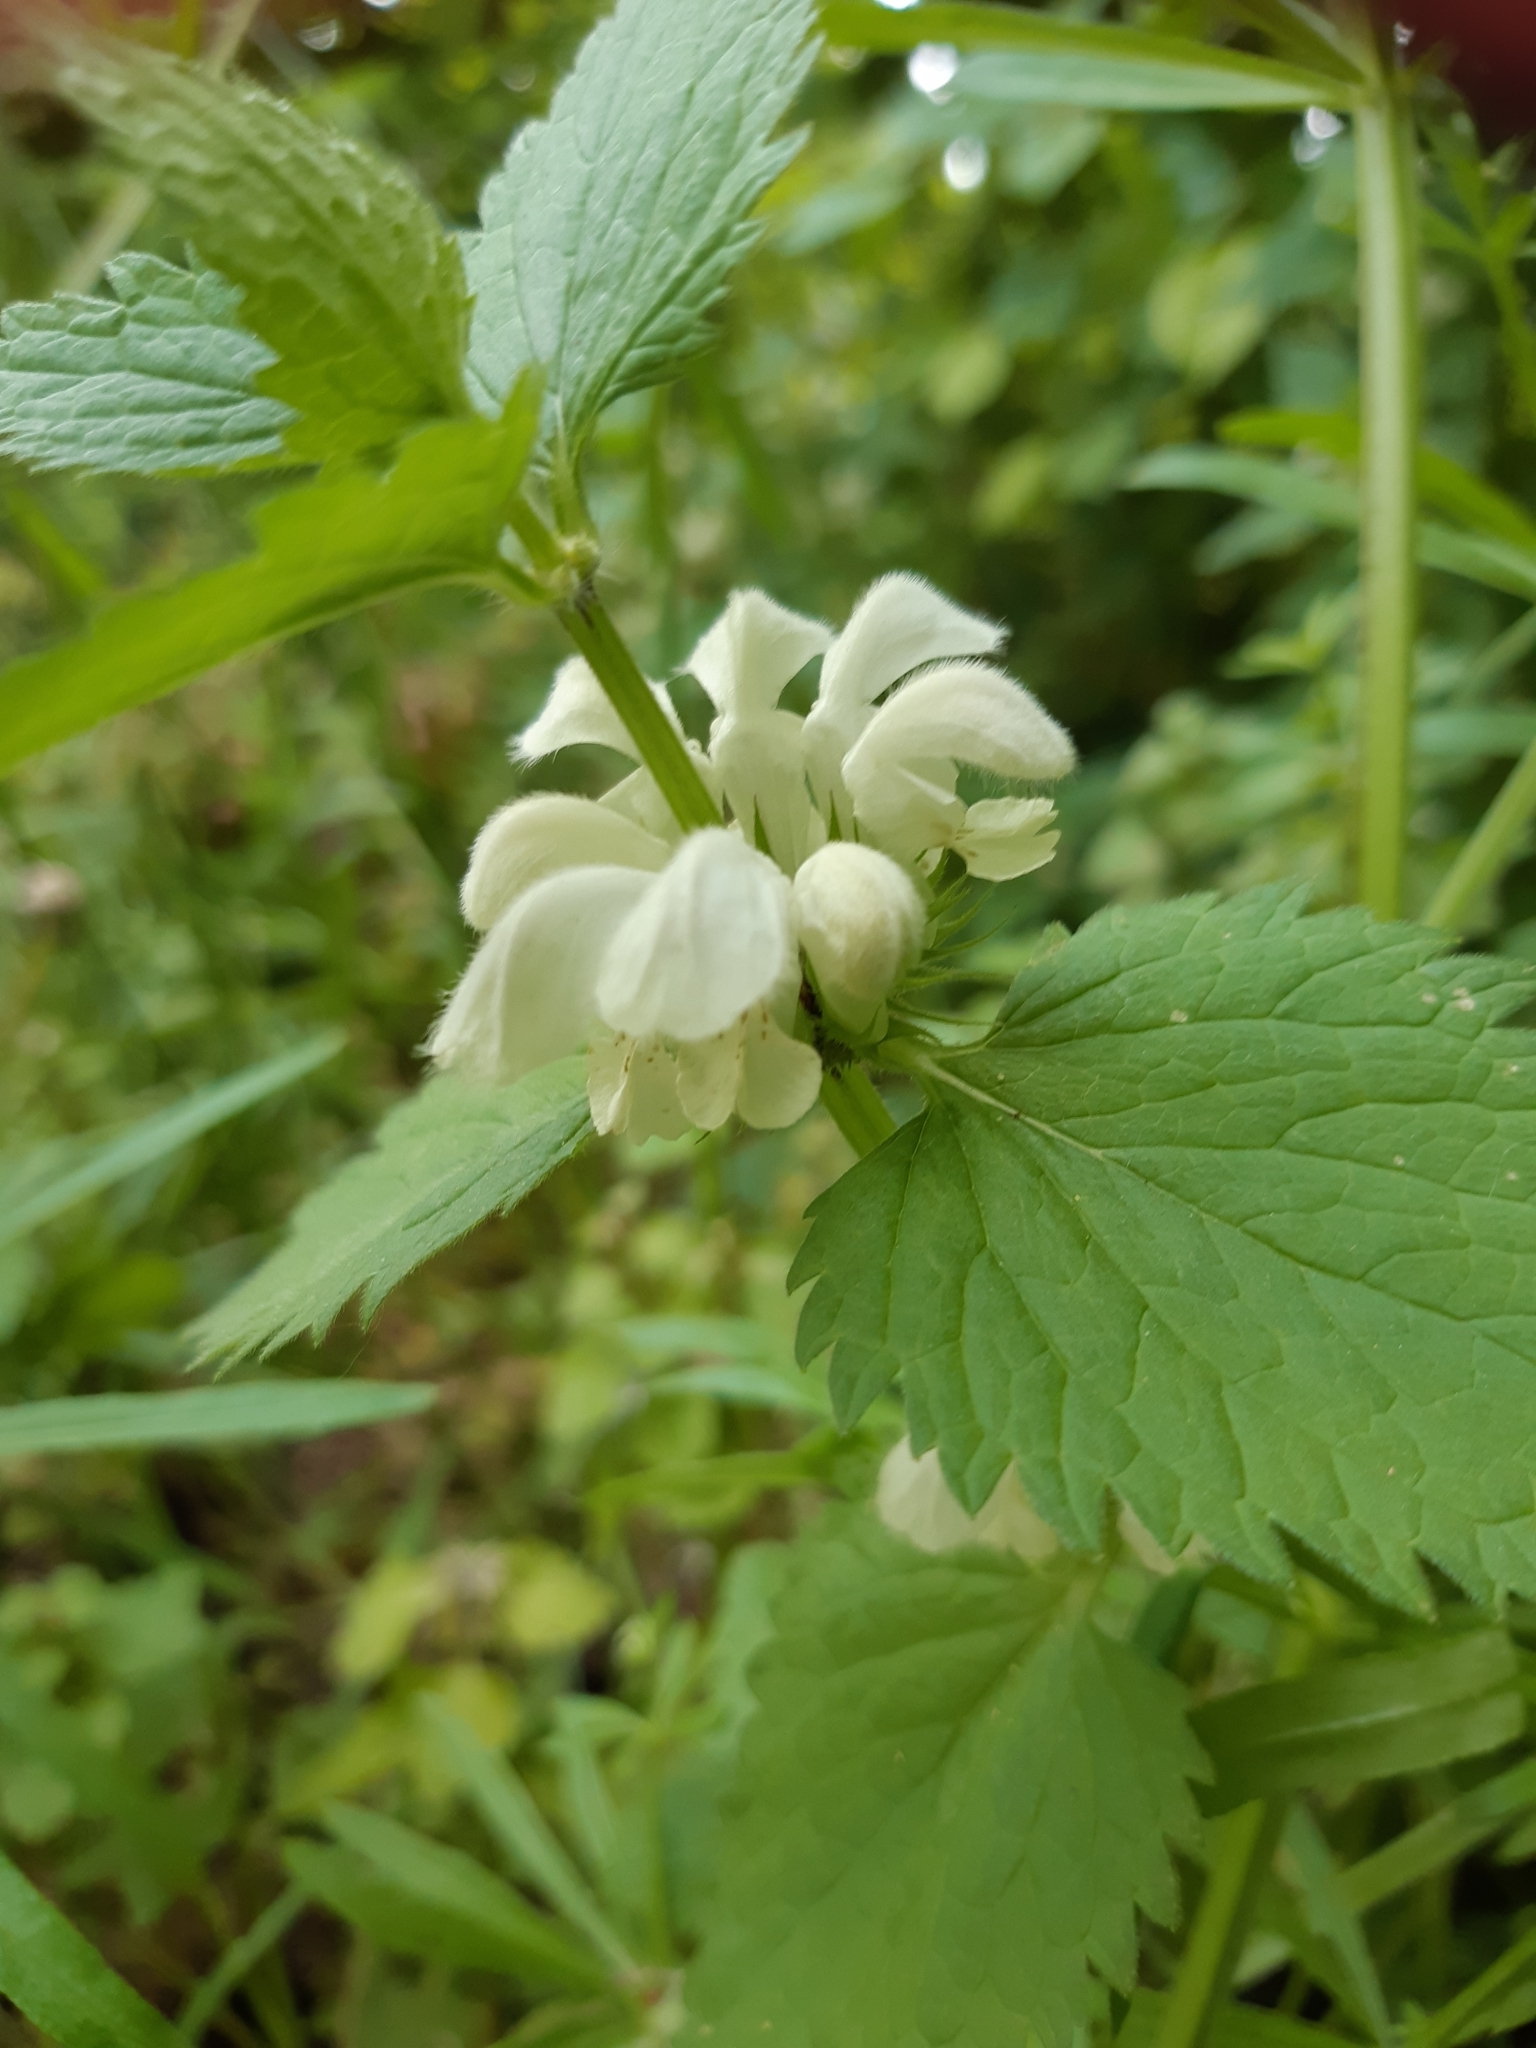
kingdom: Plantae
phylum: Tracheophyta
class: Magnoliopsida
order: Lamiales
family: Lamiaceae
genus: Lamium
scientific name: Lamium album
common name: White dead-nettle
